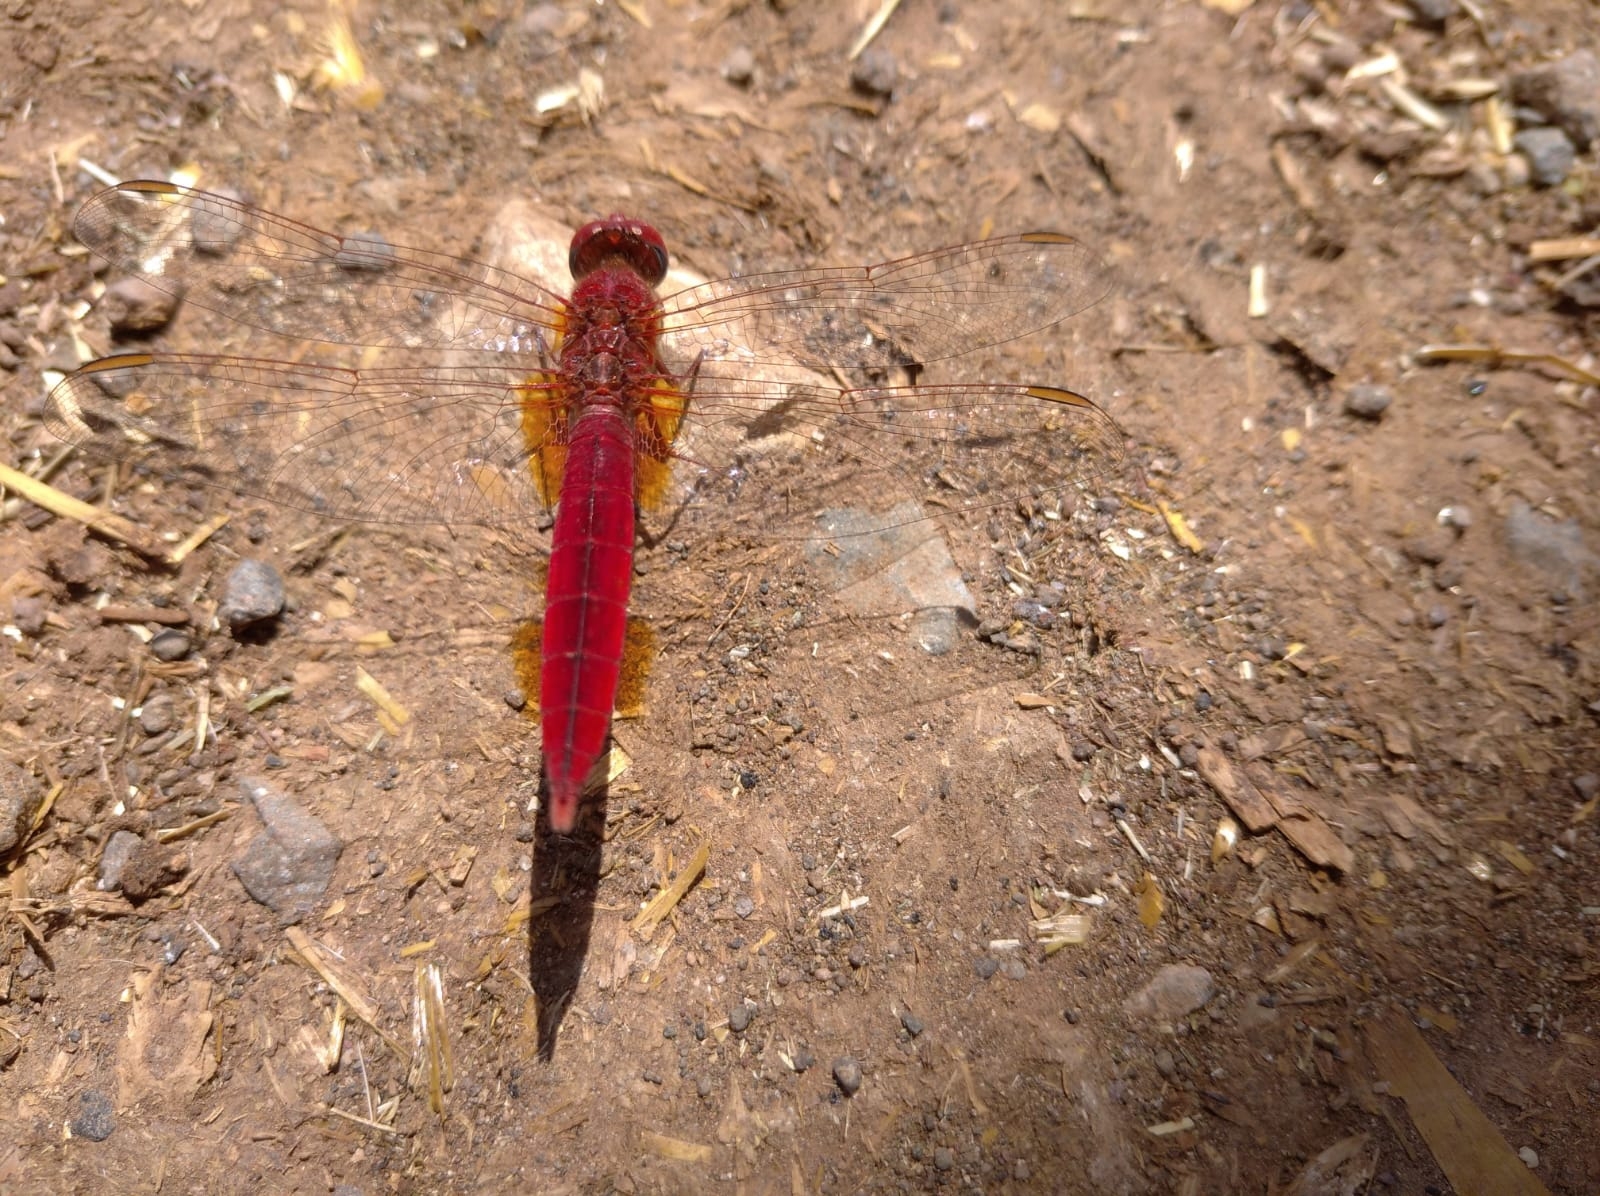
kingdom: Animalia
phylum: Arthropoda
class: Insecta
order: Odonata
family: Libellulidae
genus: Crocothemis
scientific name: Crocothemis erythraea
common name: Scarlet dragonfly
